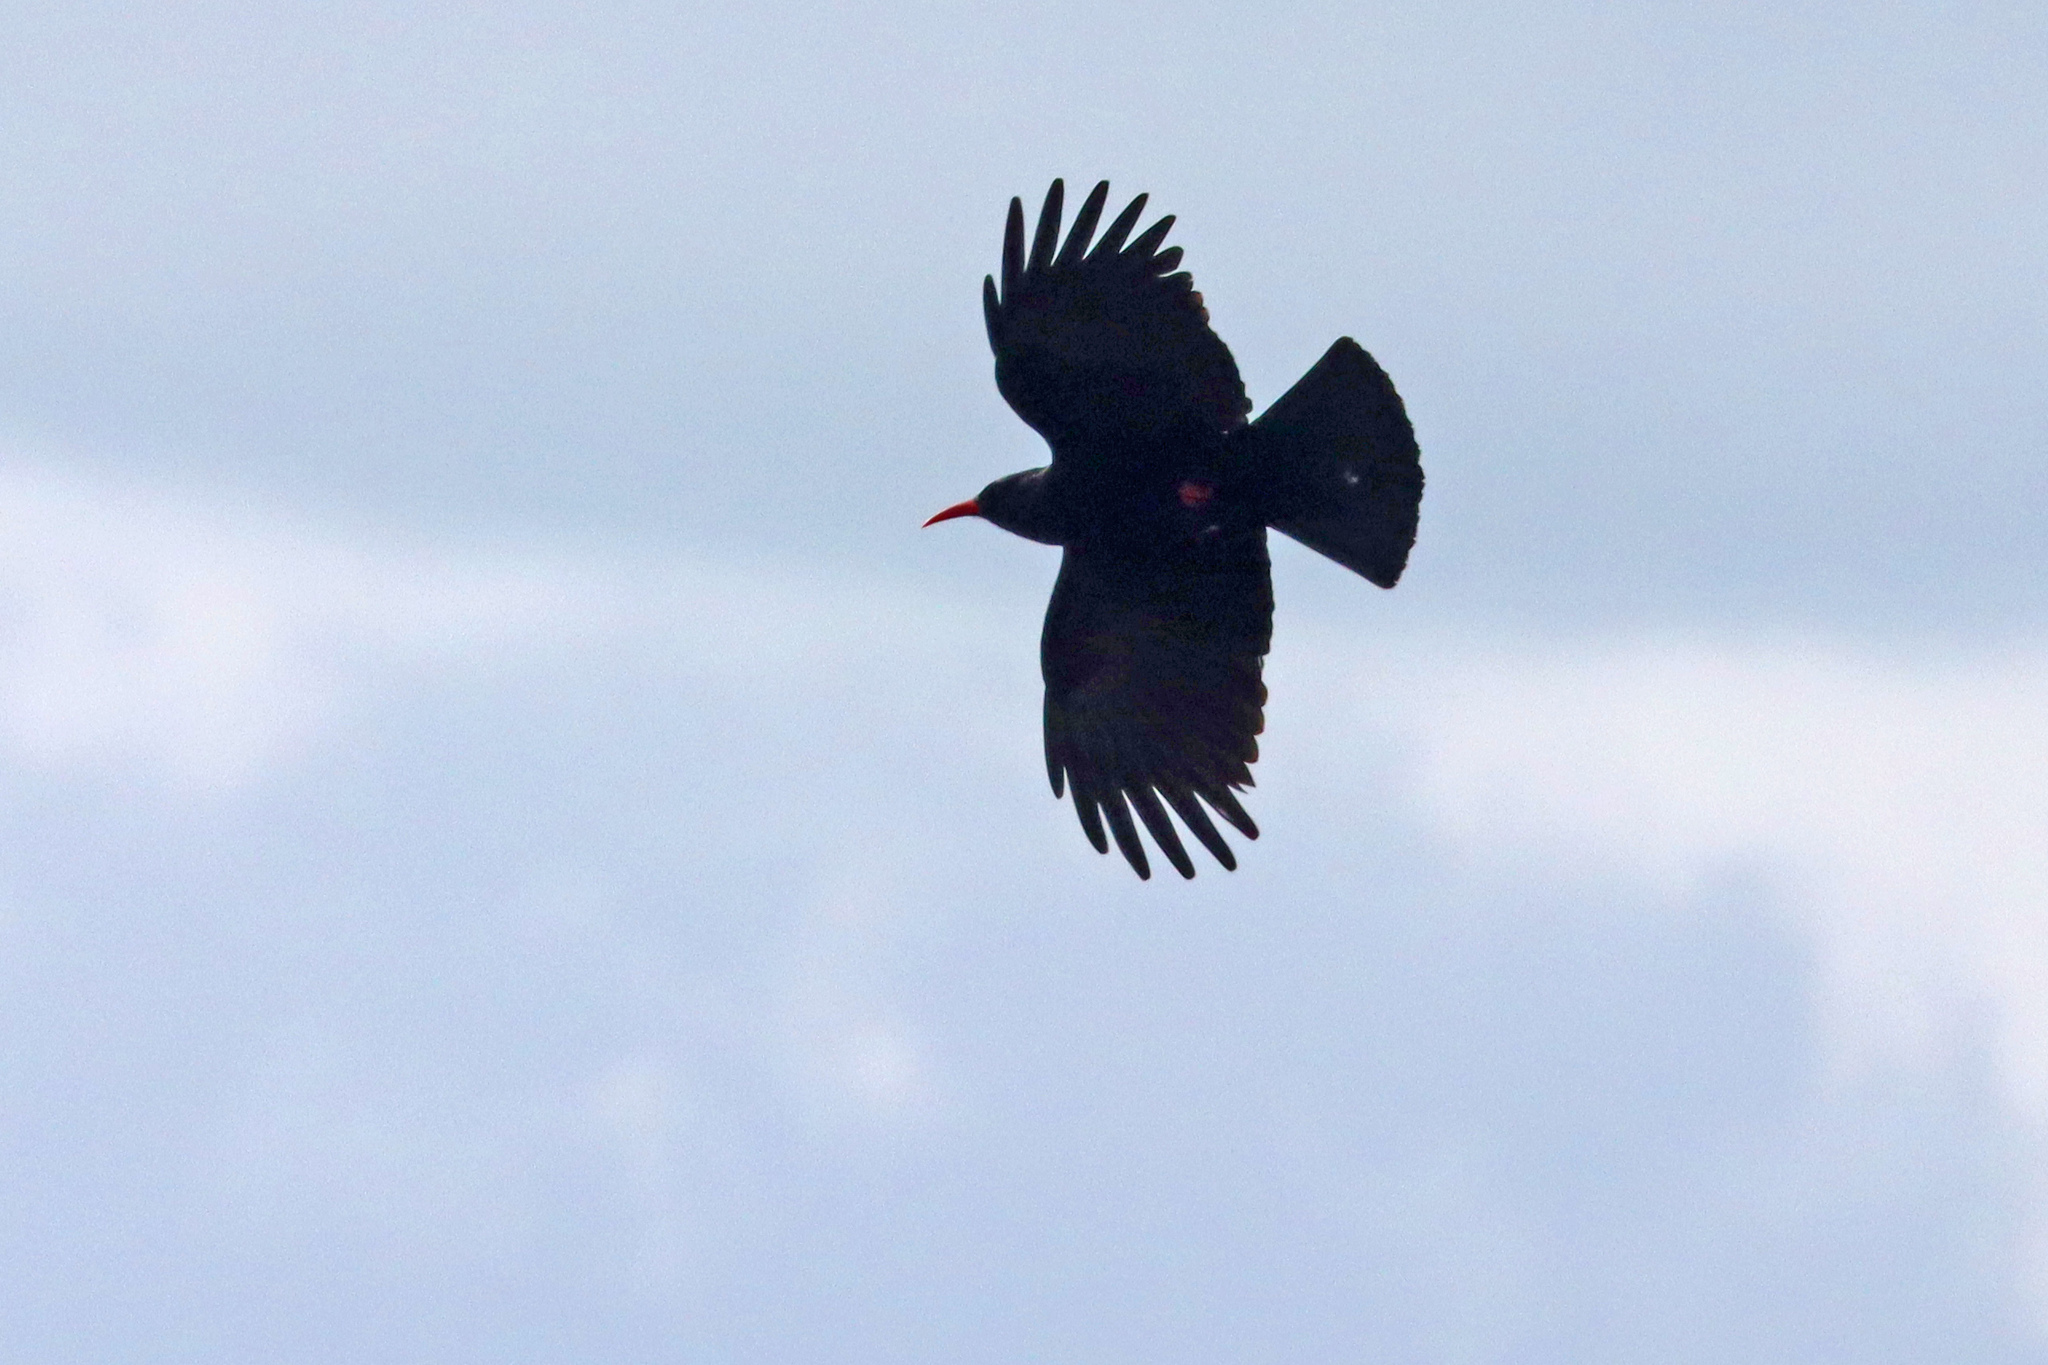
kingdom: Animalia
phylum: Chordata
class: Aves
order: Passeriformes
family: Corvidae
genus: Pyrrhocorax
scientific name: Pyrrhocorax pyrrhocorax
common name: Red-billed chough
